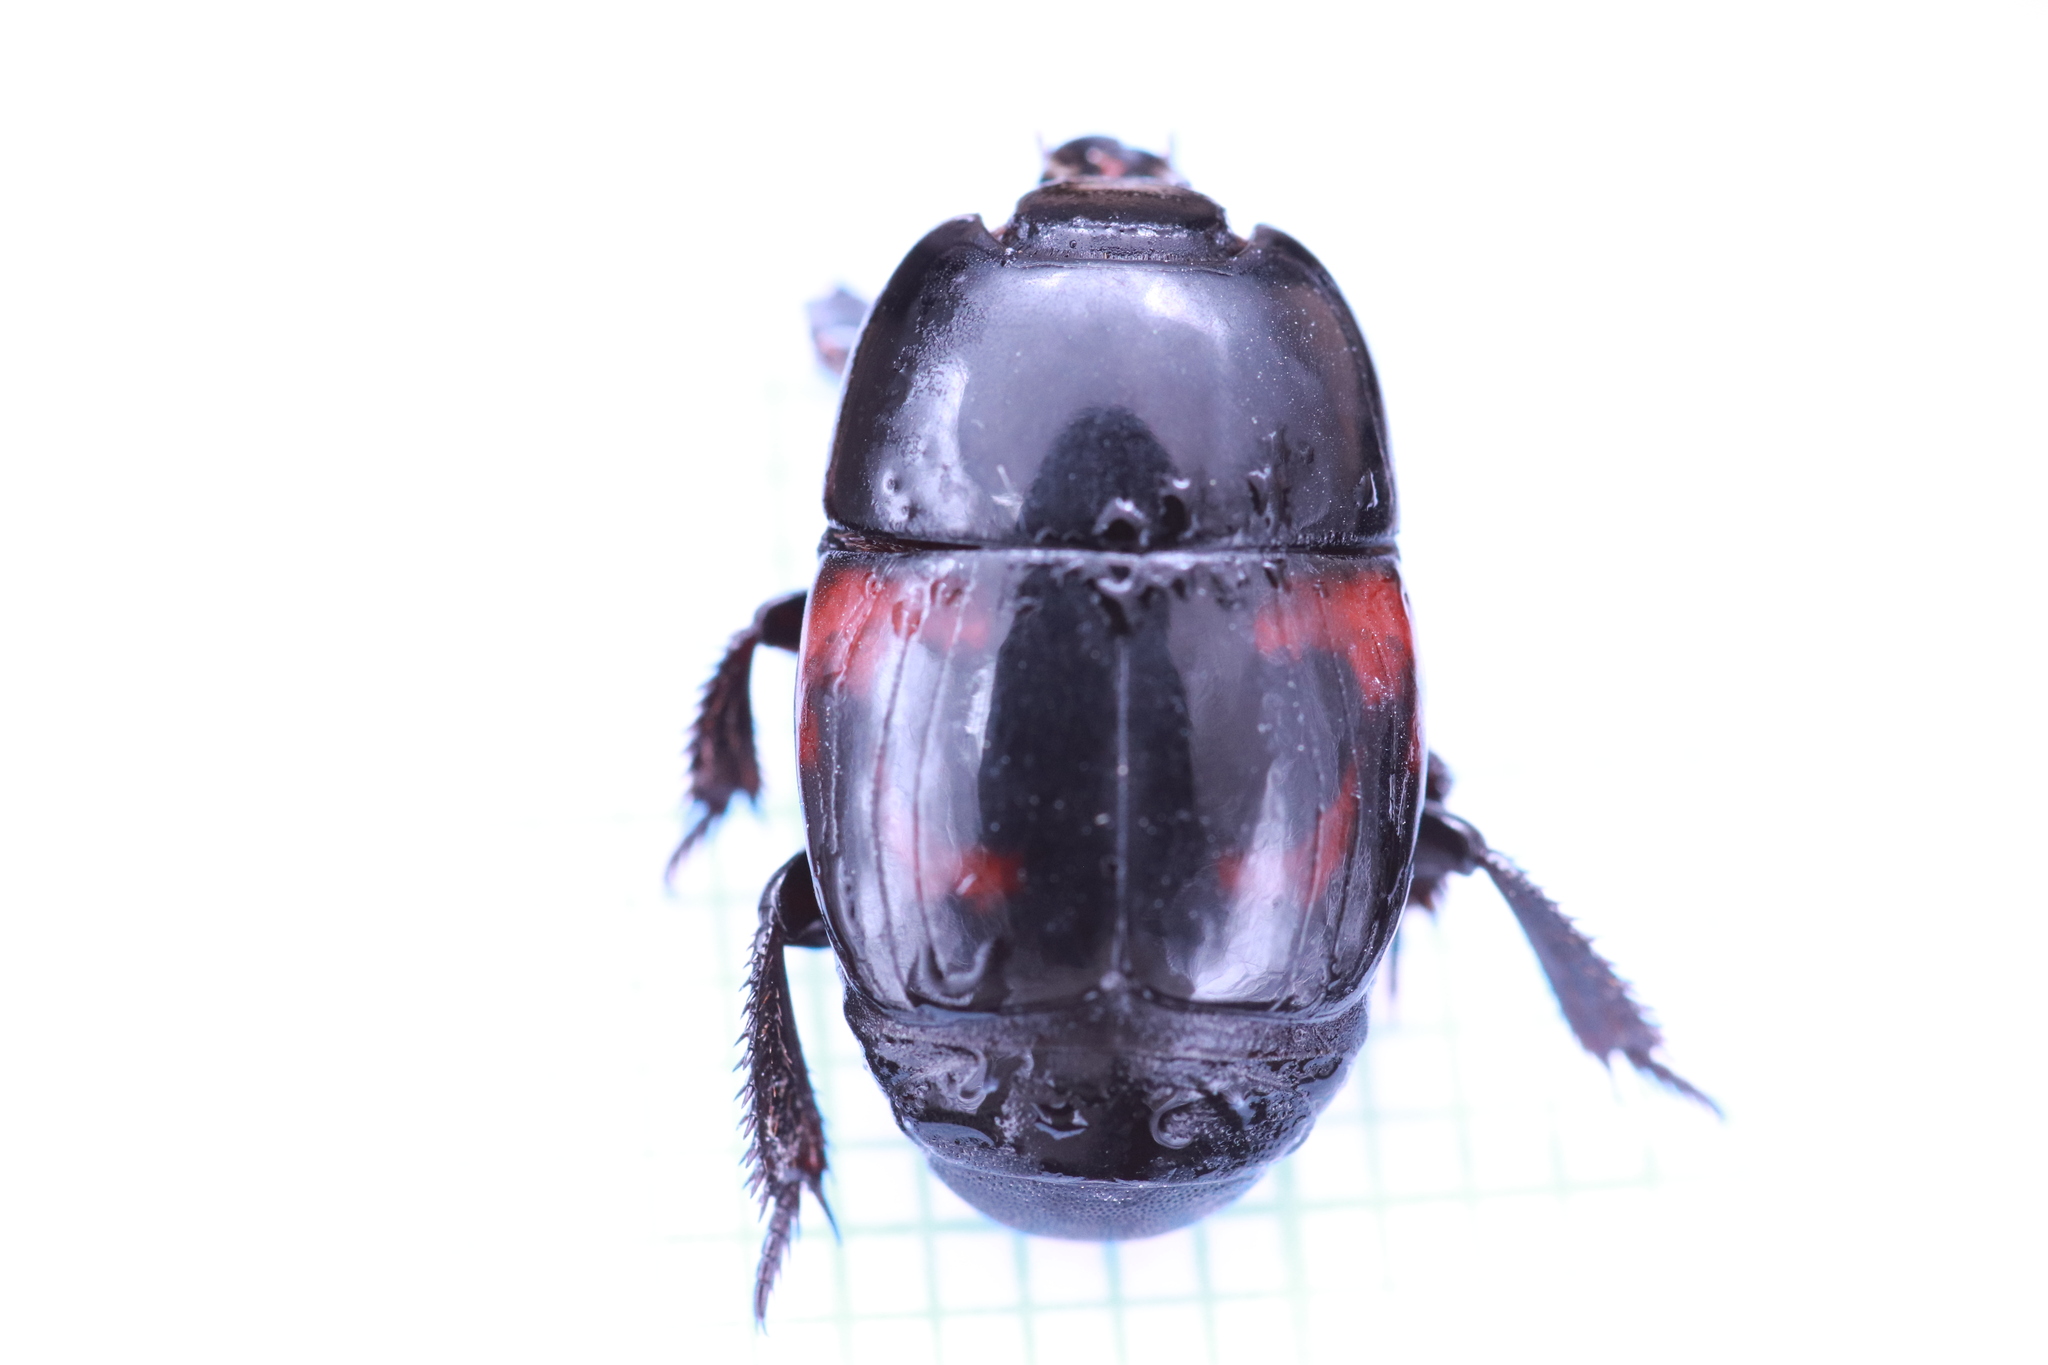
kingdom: Animalia
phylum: Arthropoda
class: Insecta
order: Coleoptera
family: Histeridae
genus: Hister
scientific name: Hister quadrimaculatus
